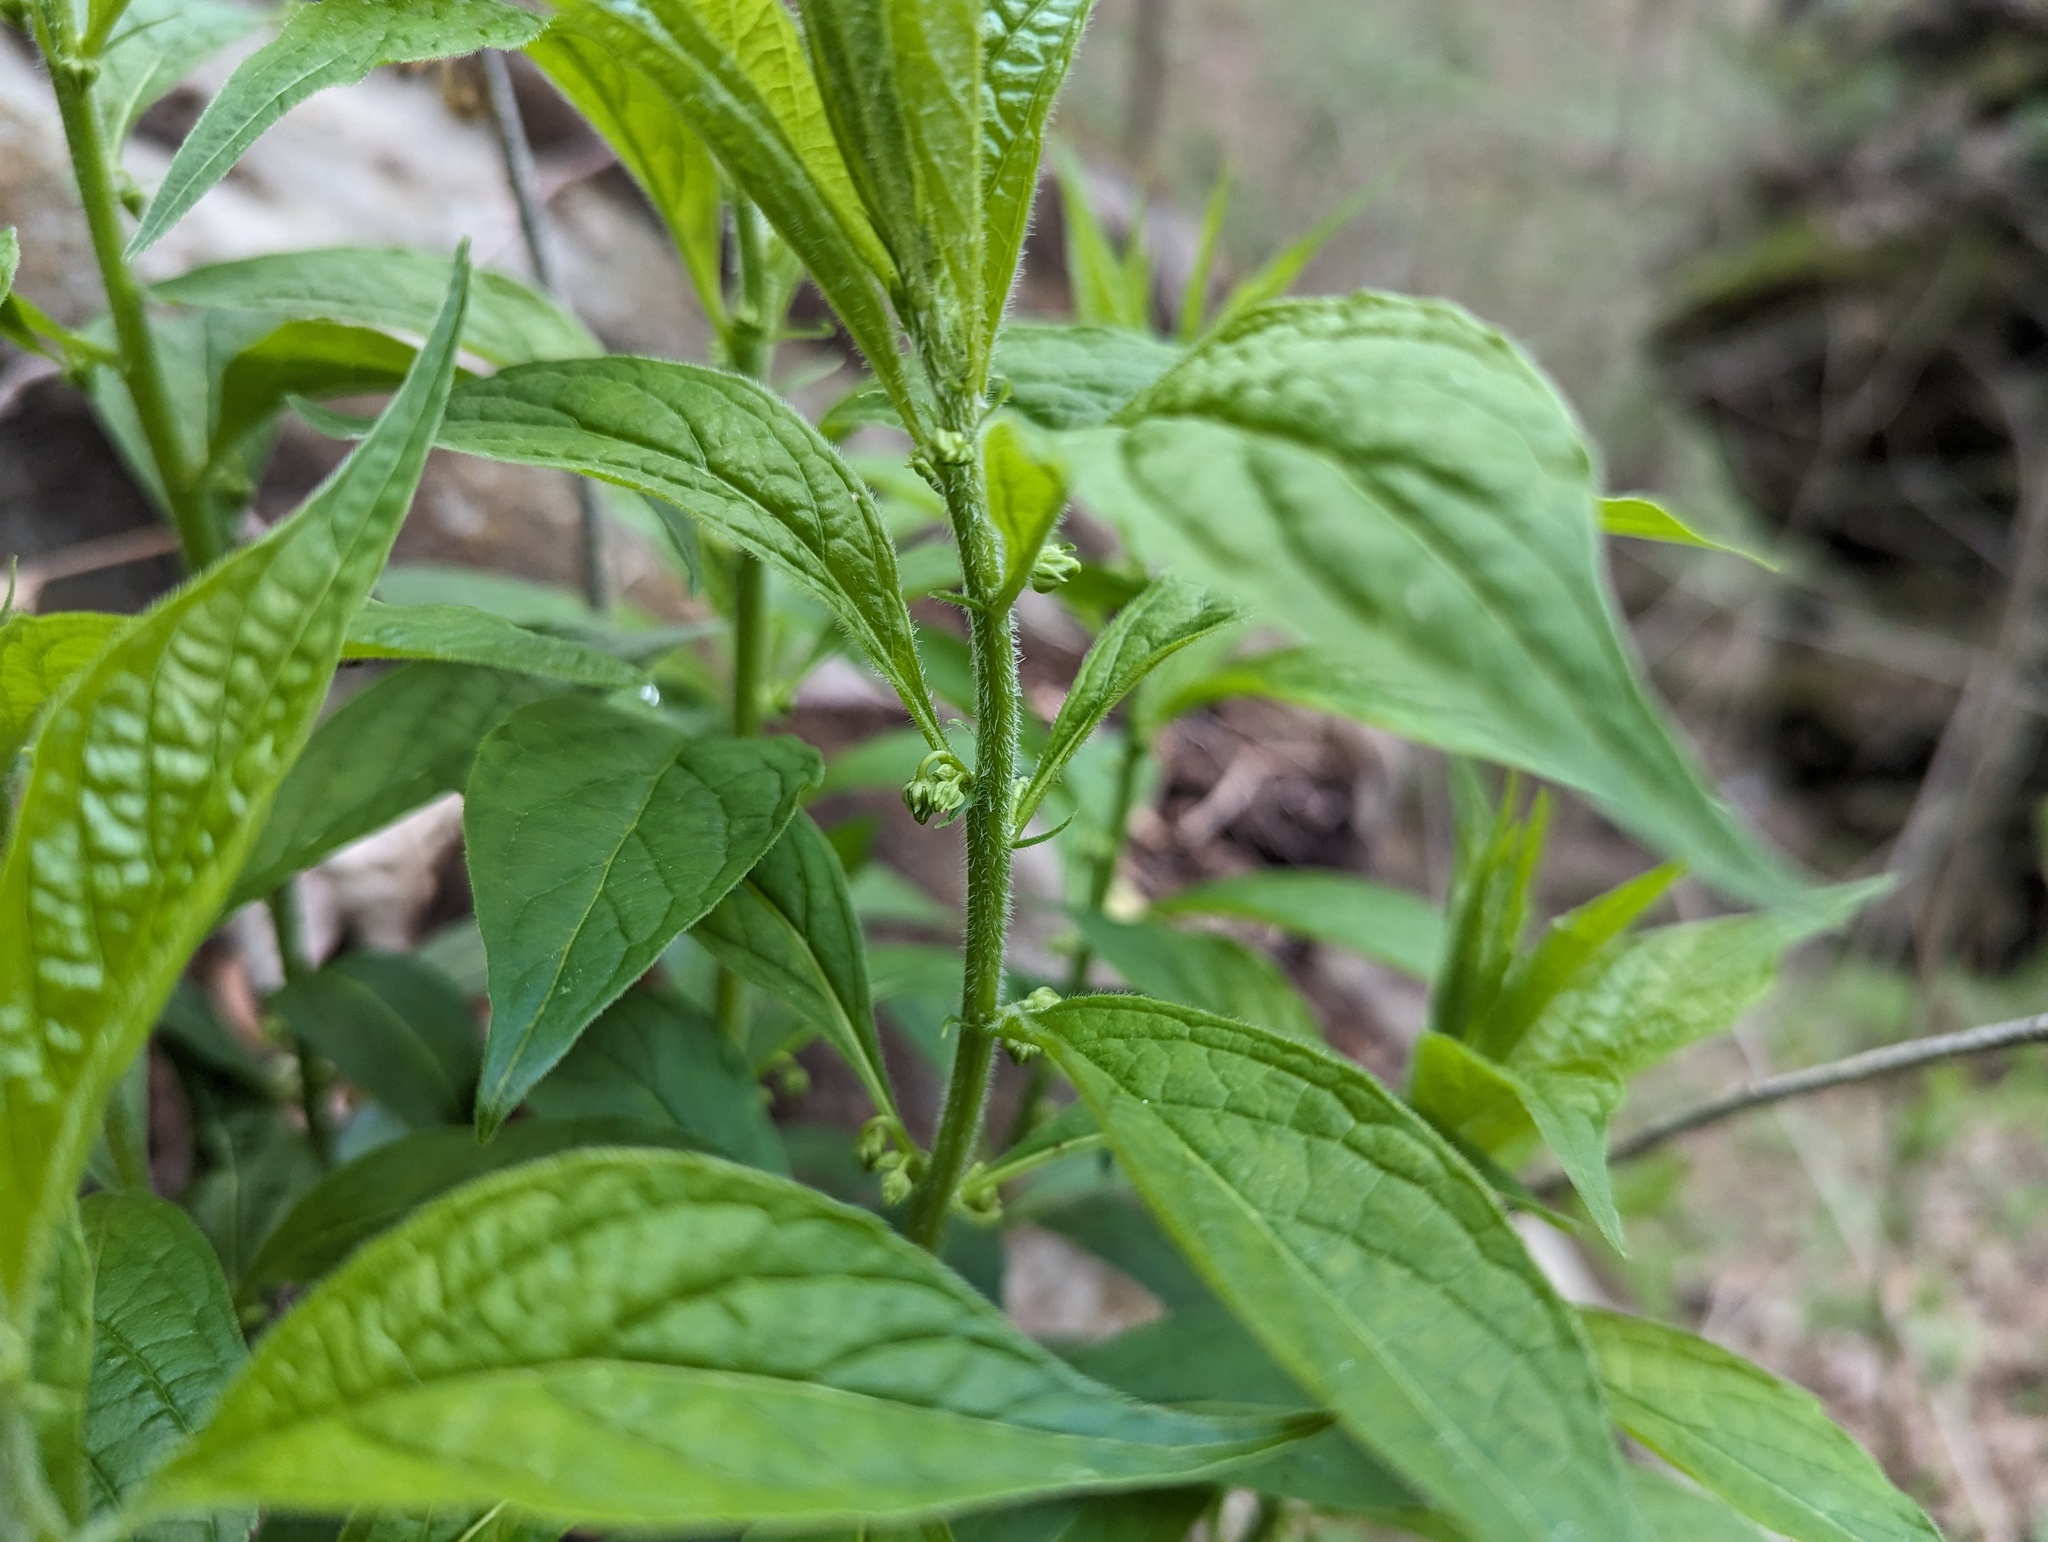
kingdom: Plantae
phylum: Tracheophyta
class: Magnoliopsida
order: Malpighiales
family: Violaceae
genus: Cubelium
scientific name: Cubelium concolor
